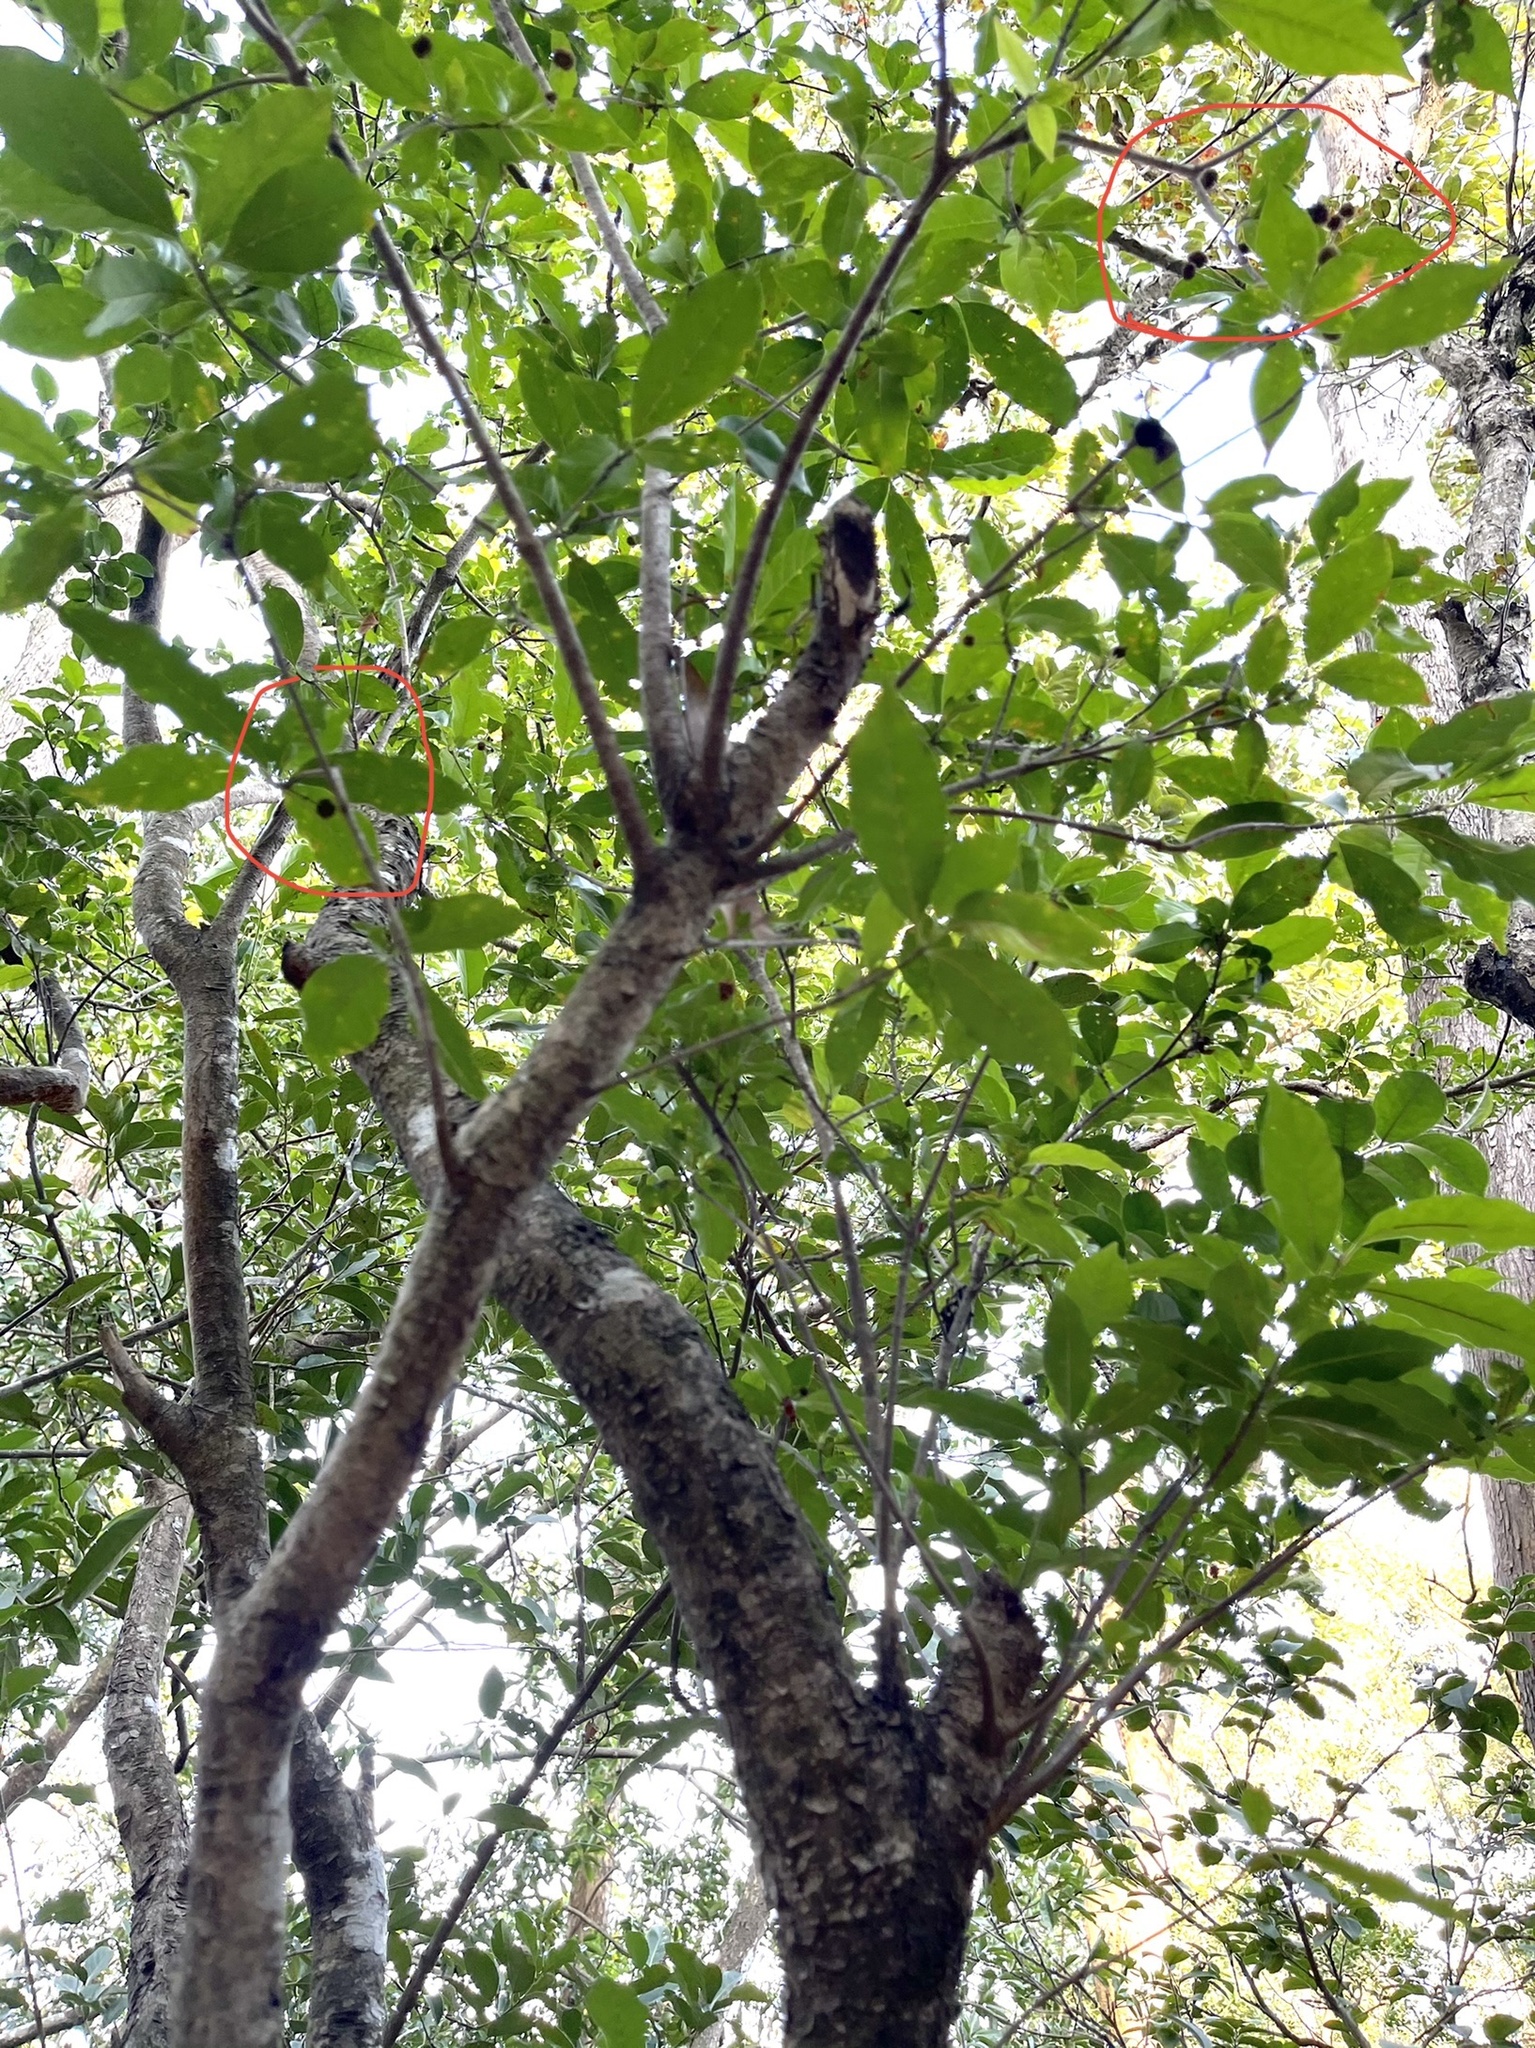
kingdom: Plantae
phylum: Tracheophyta
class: Magnoliopsida
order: Rosales
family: Rosaceae
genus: Rhaphiolepis
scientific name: Rhaphiolepis indica
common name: India-hawthorn
